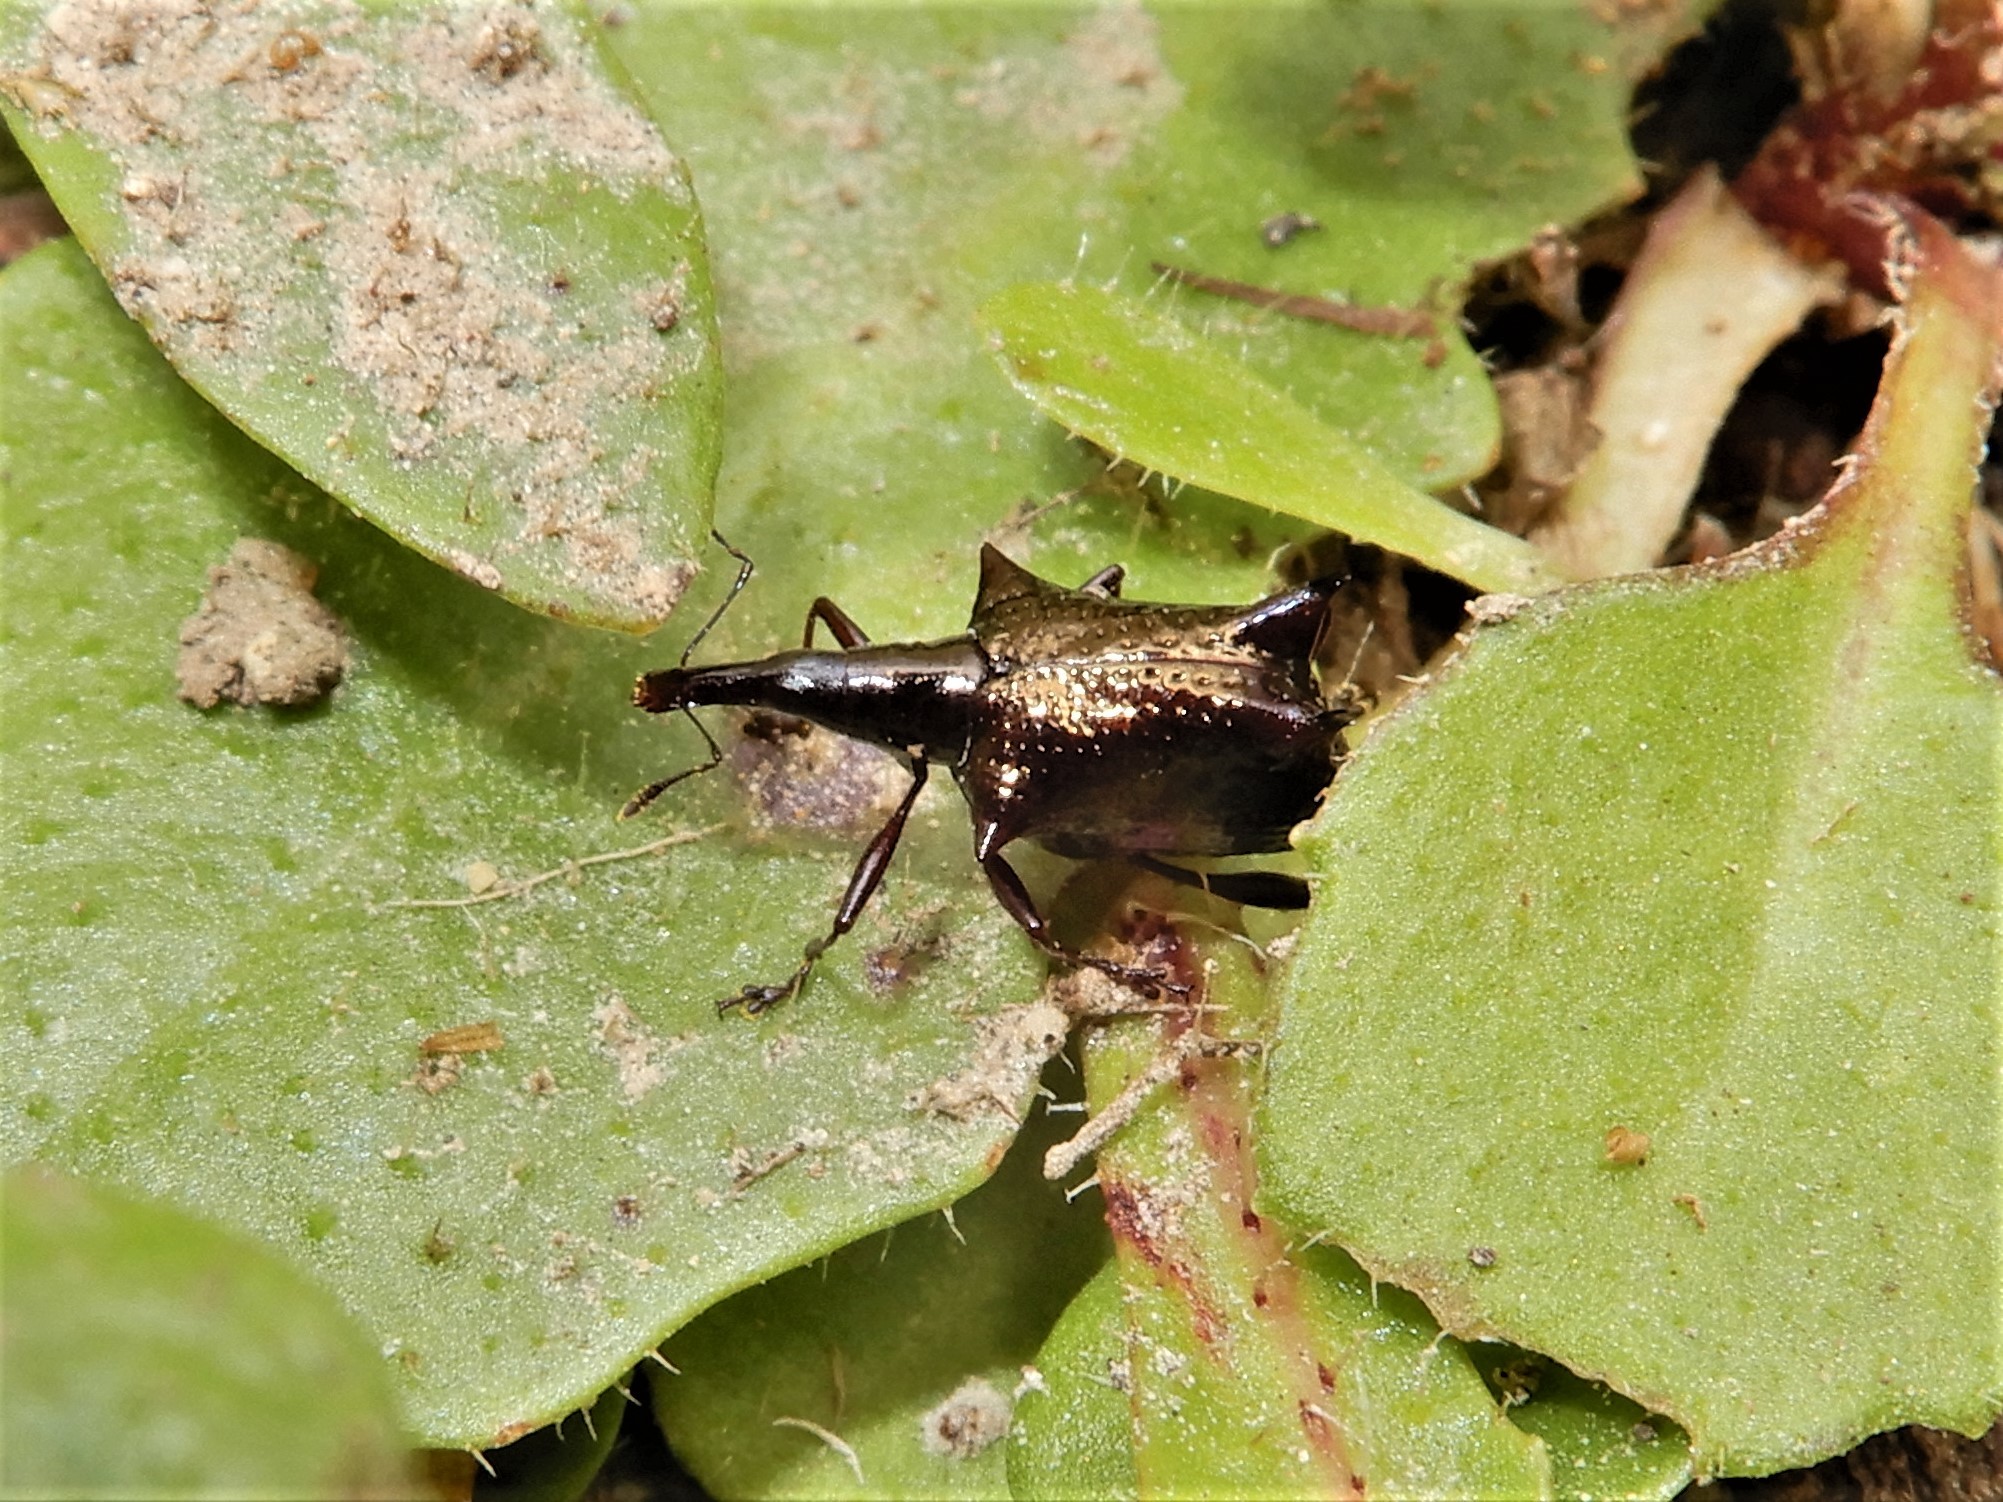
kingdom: Animalia
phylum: Arthropoda
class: Insecta
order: Coleoptera
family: Curculionidae
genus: Scolopterus
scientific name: Scolopterus aequus
